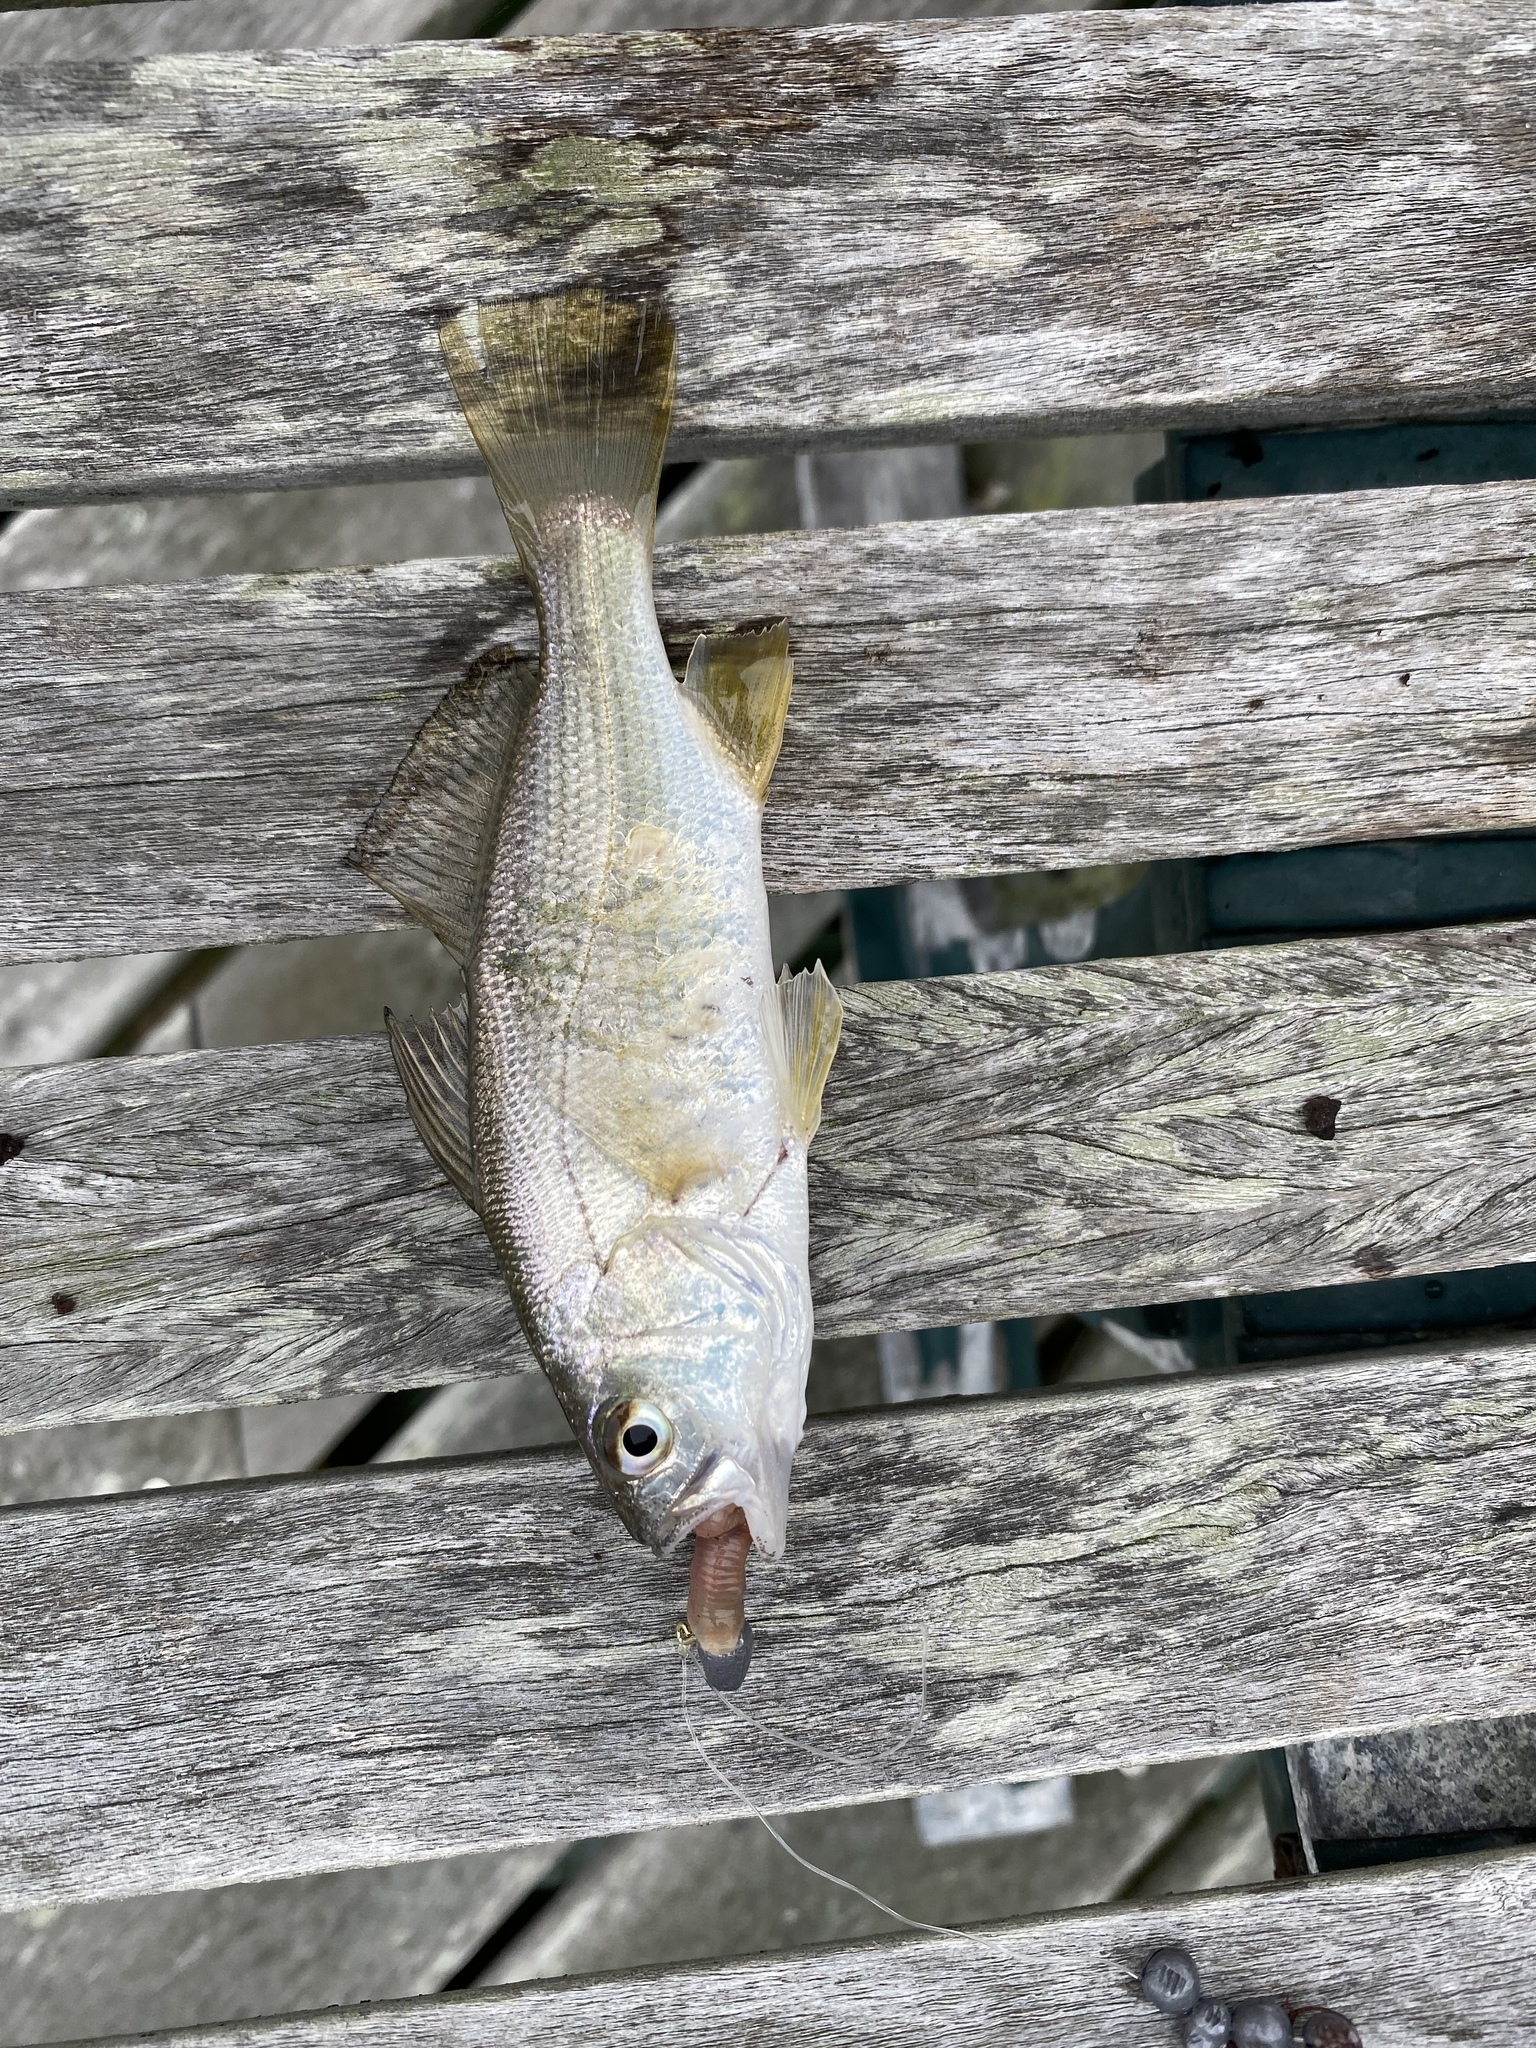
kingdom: Animalia
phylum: Chordata
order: Perciformes
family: Sciaenidae
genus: Bairdiella
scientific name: Bairdiella chrysoura
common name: Silver perch
